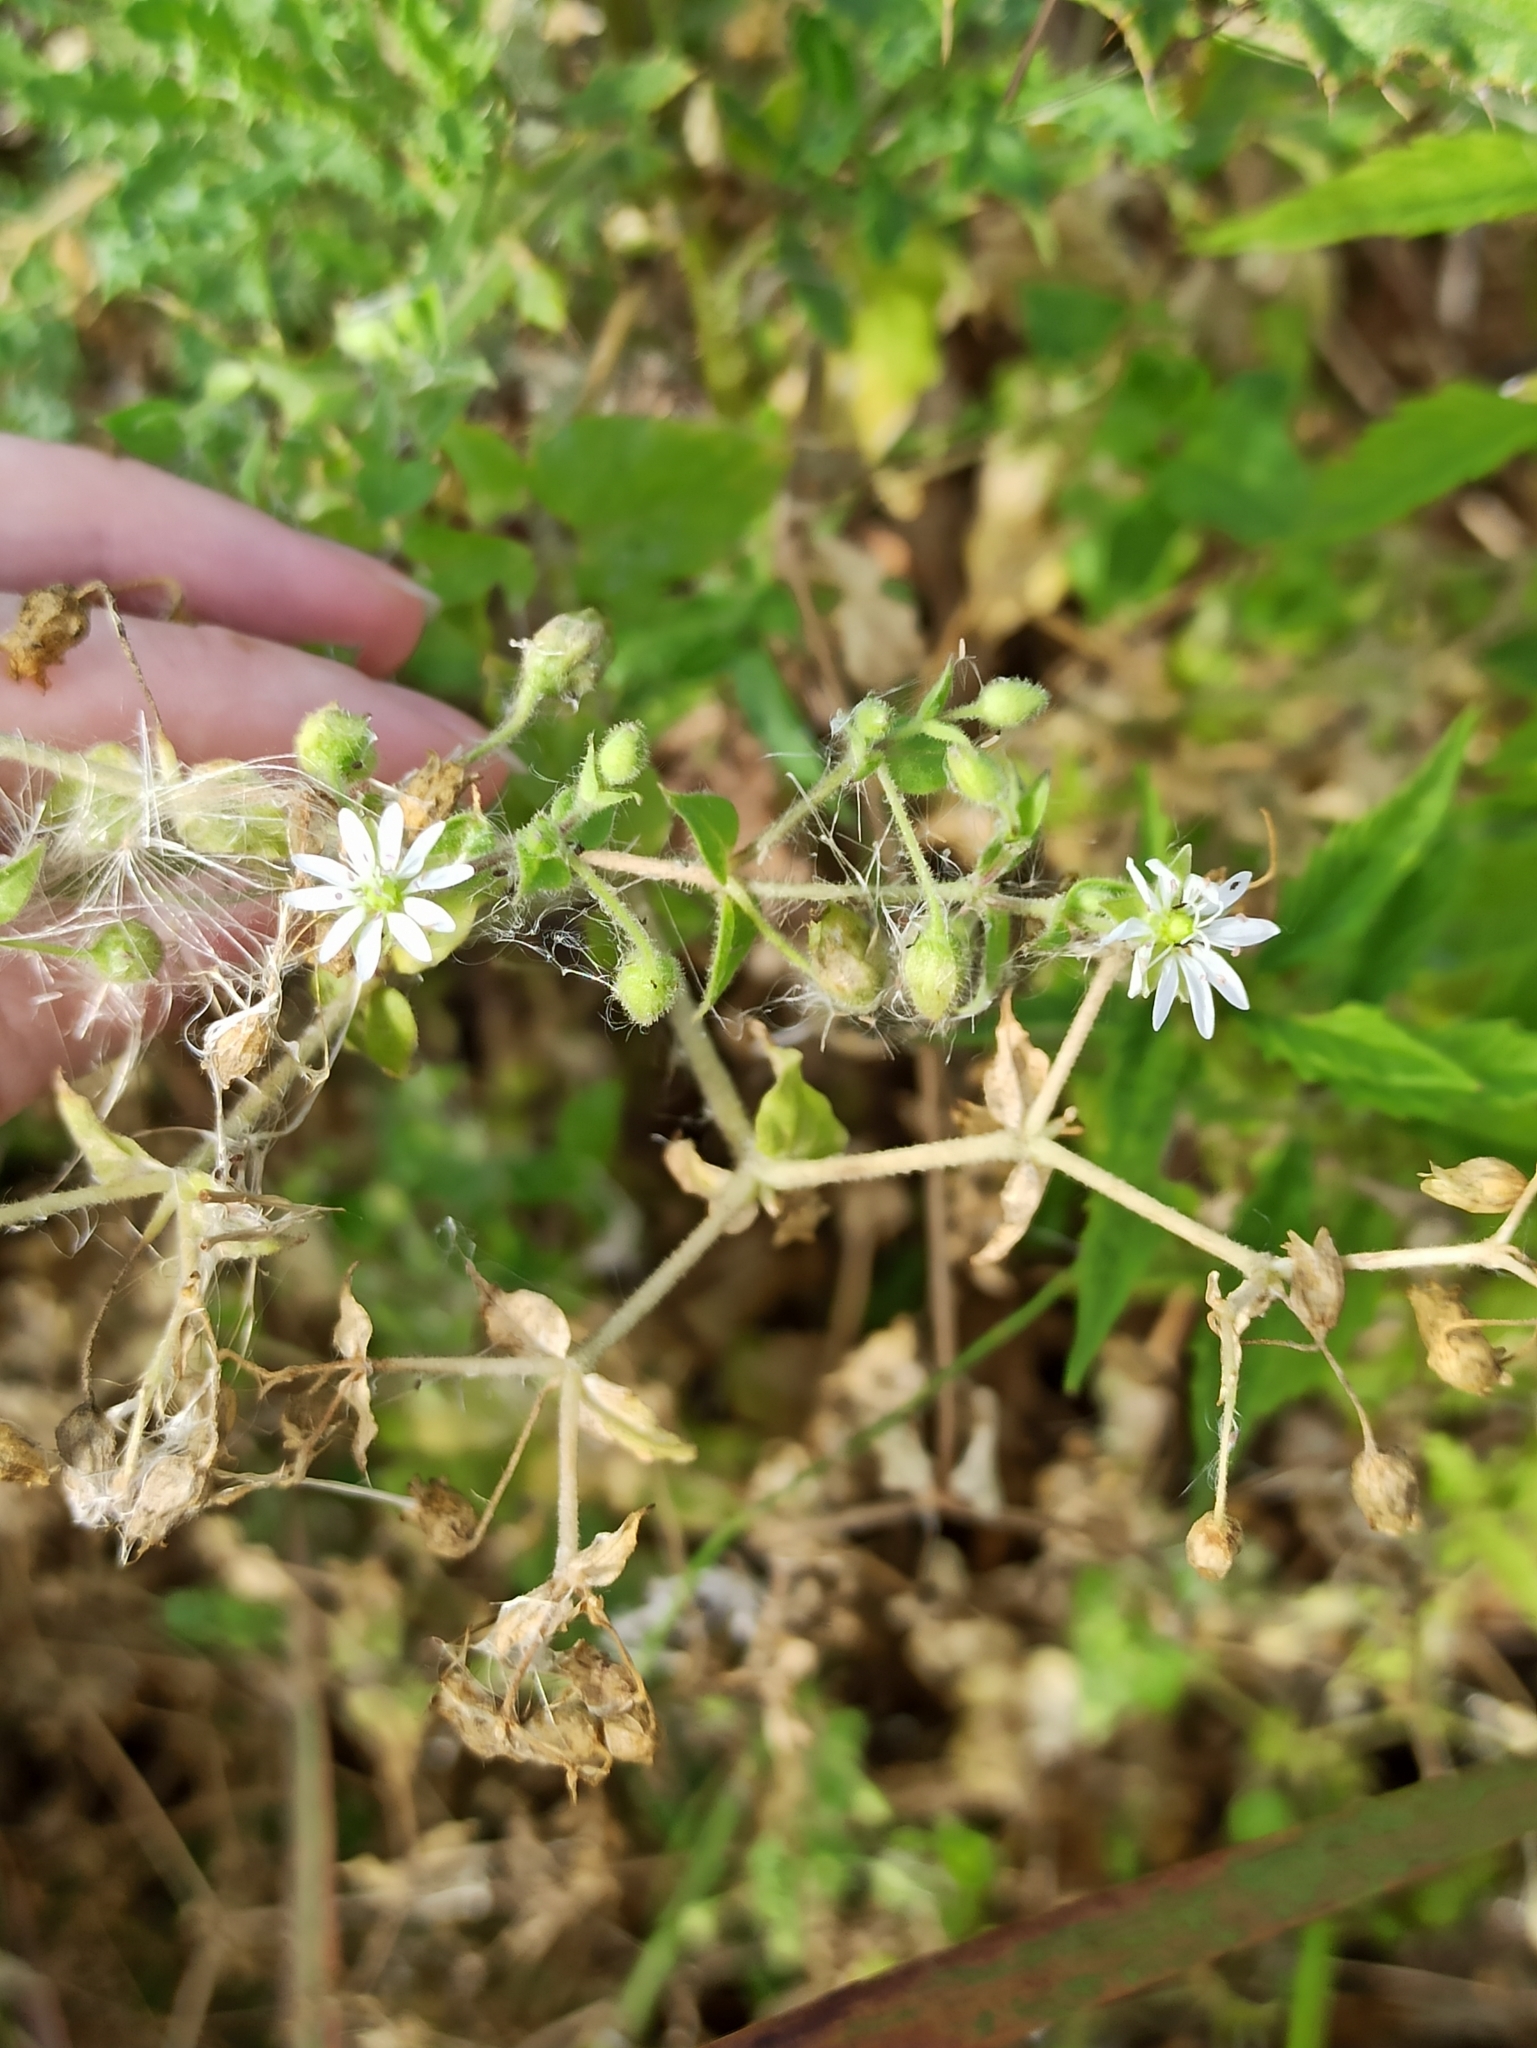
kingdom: Plantae
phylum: Tracheophyta
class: Magnoliopsida
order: Caryophyllales
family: Caryophyllaceae
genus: Stellaria
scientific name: Stellaria aquatica
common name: Water chickweed
